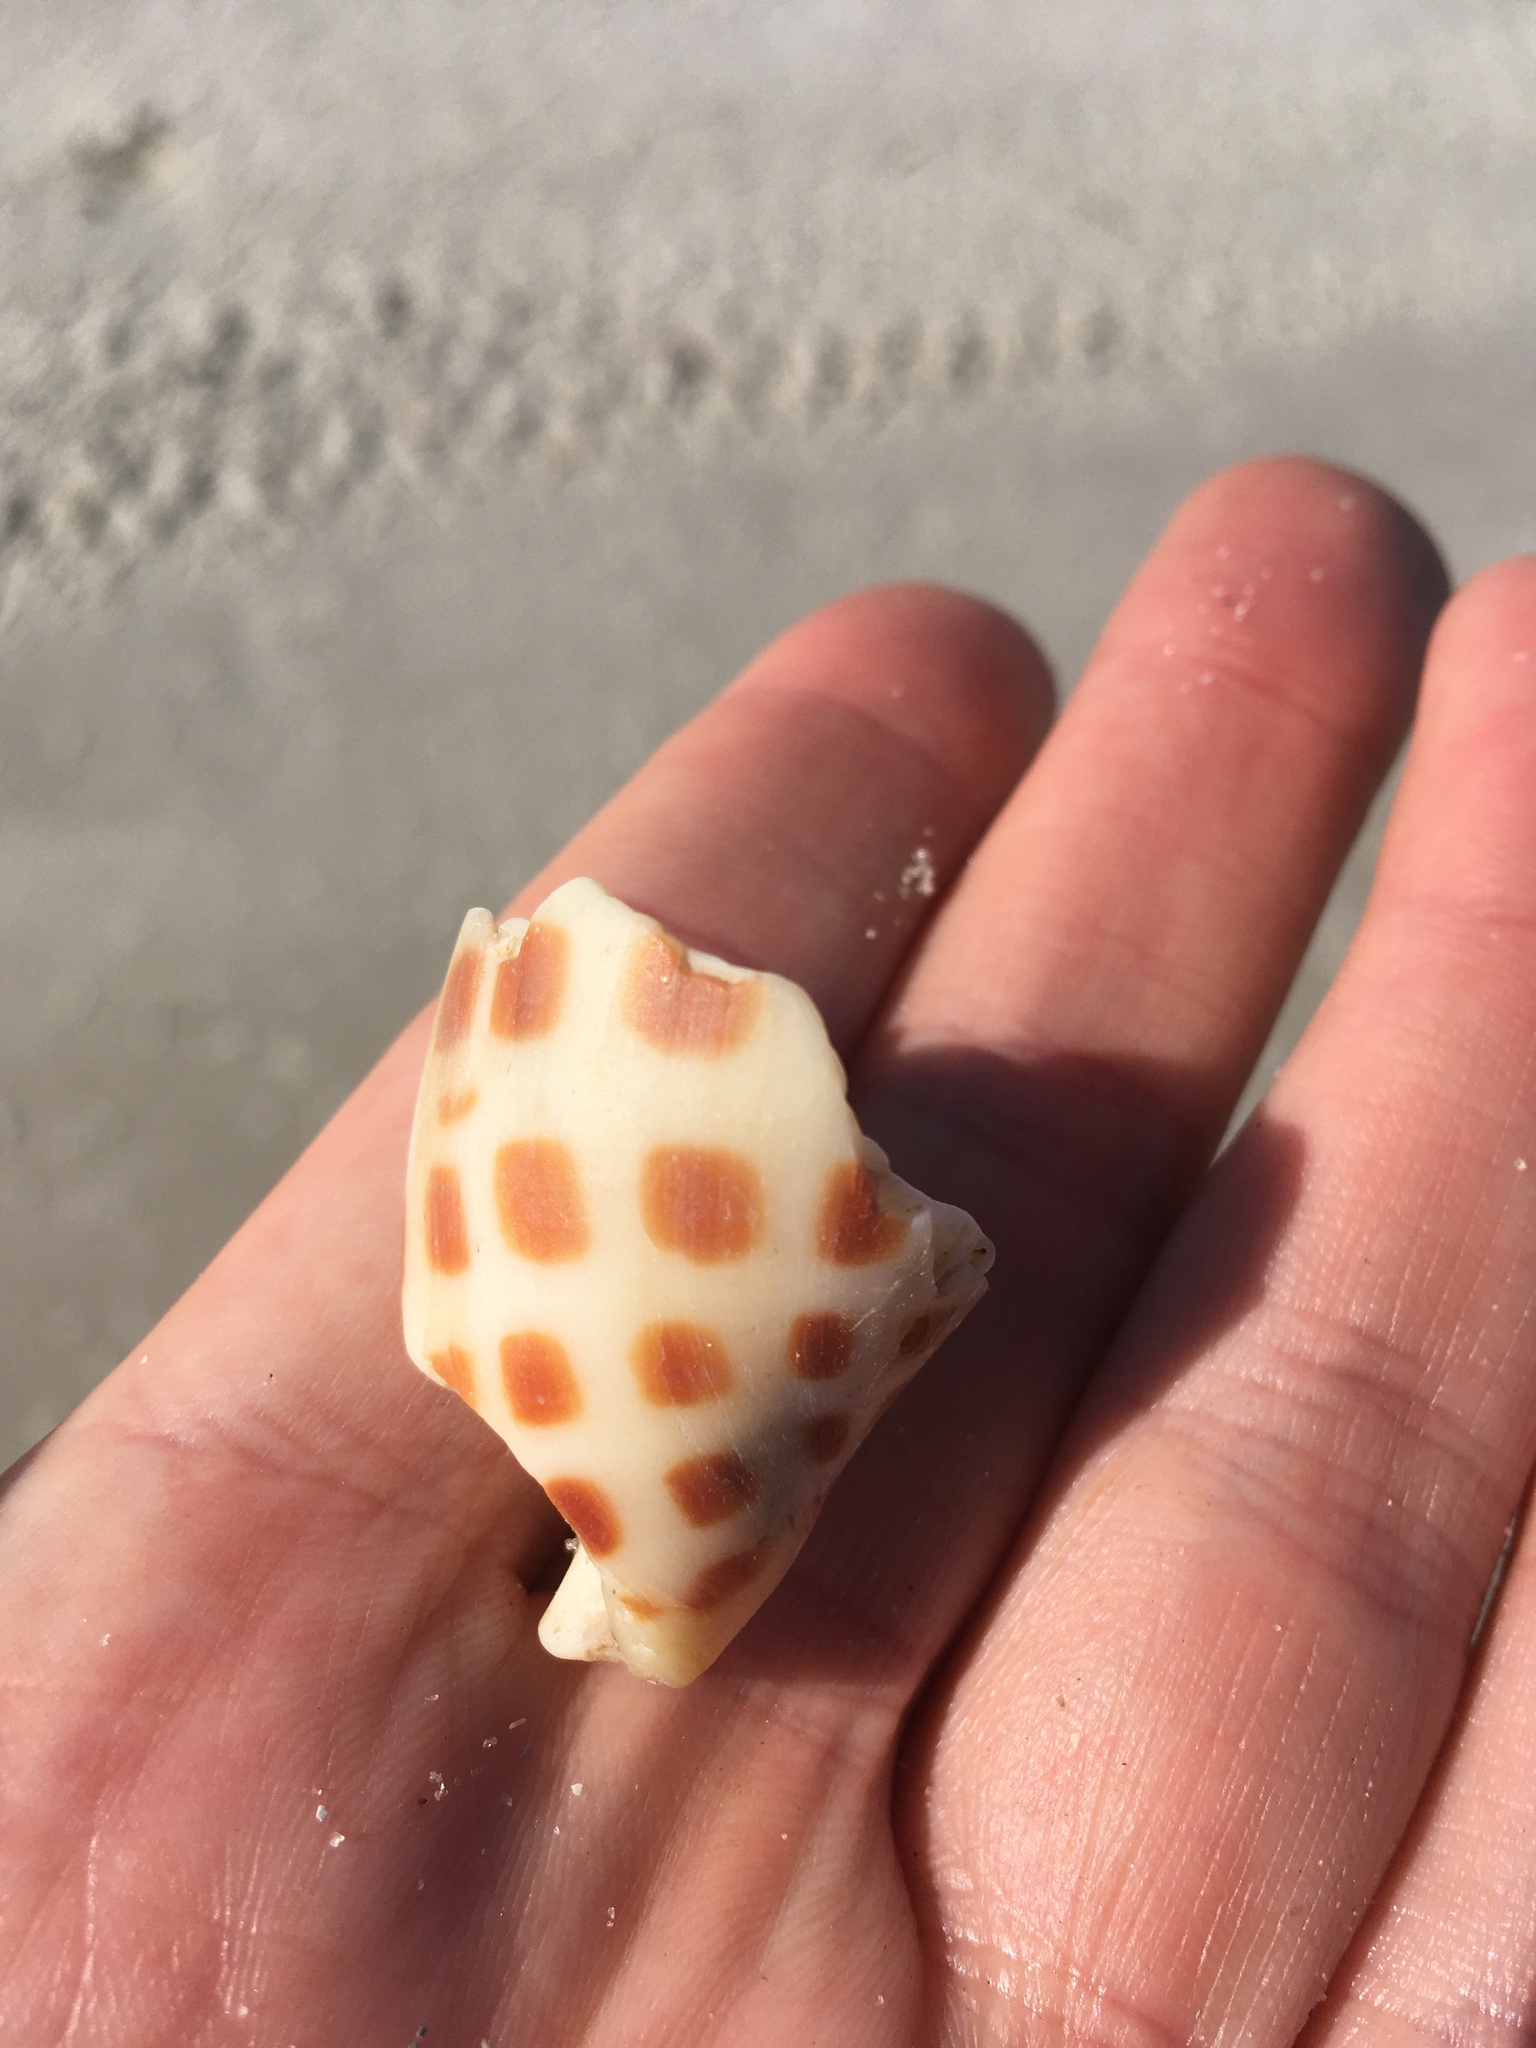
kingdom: Animalia
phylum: Mollusca
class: Gastropoda
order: Neogastropoda
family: Volutidae
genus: Scaphella
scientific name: Scaphella junonia
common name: Juno's volute
